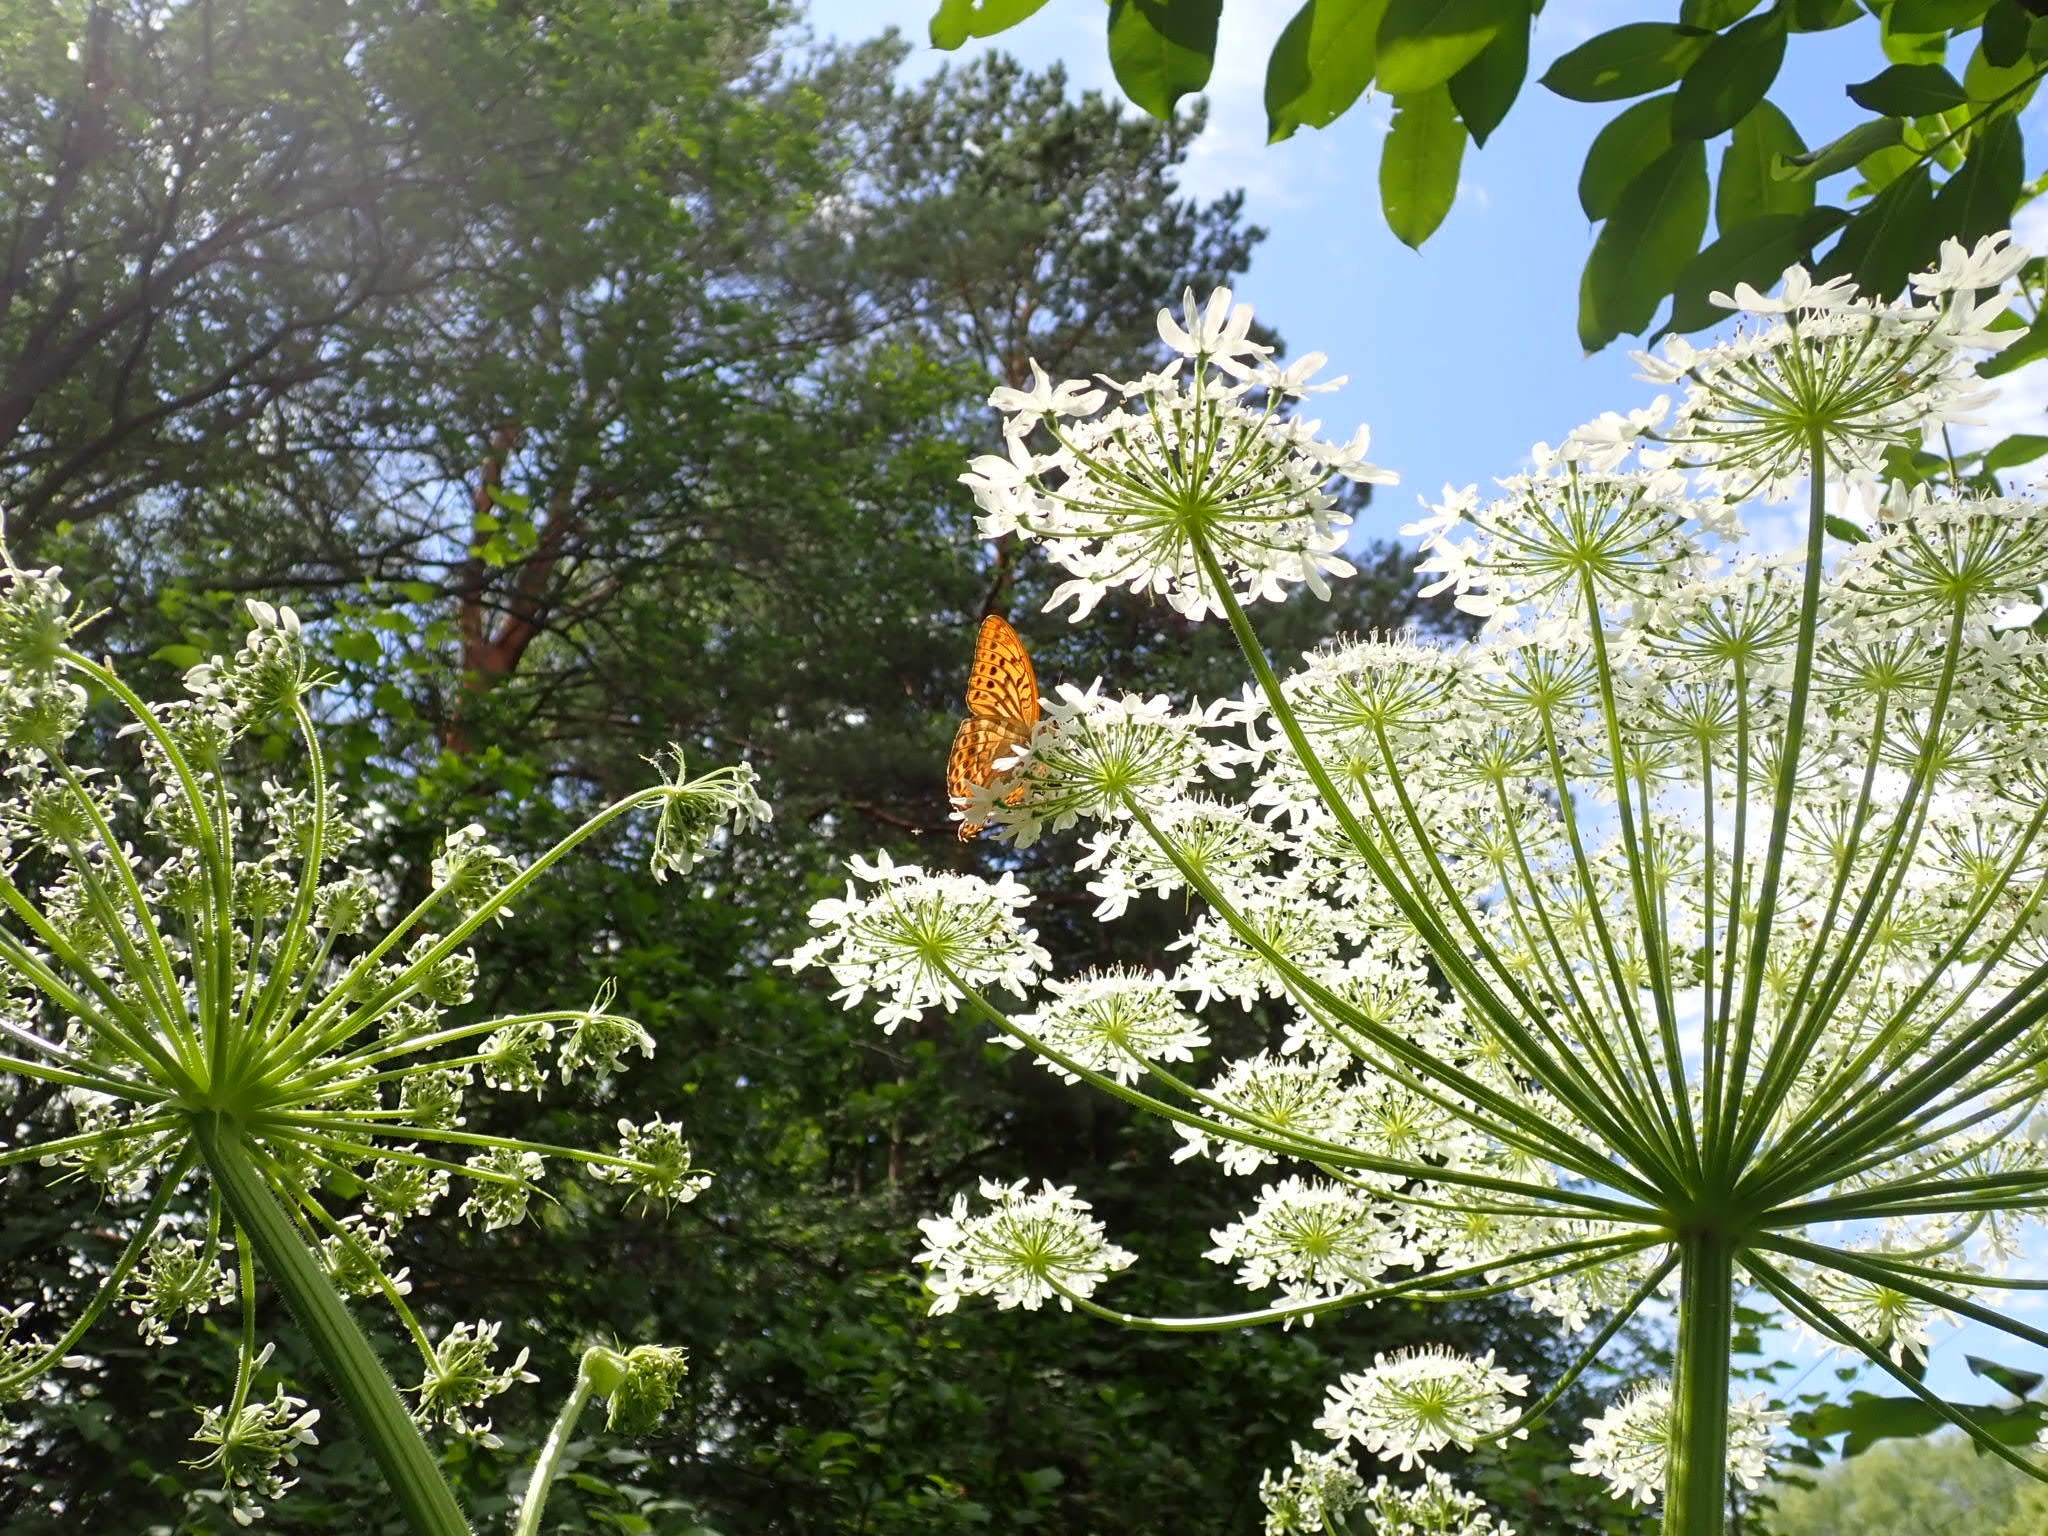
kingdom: Animalia
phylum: Arthropoda
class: Insecta
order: Lepidoptera
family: Nymphalidae
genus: Argynnis
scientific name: Argynnis paphia
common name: Silver-washed fritillary
